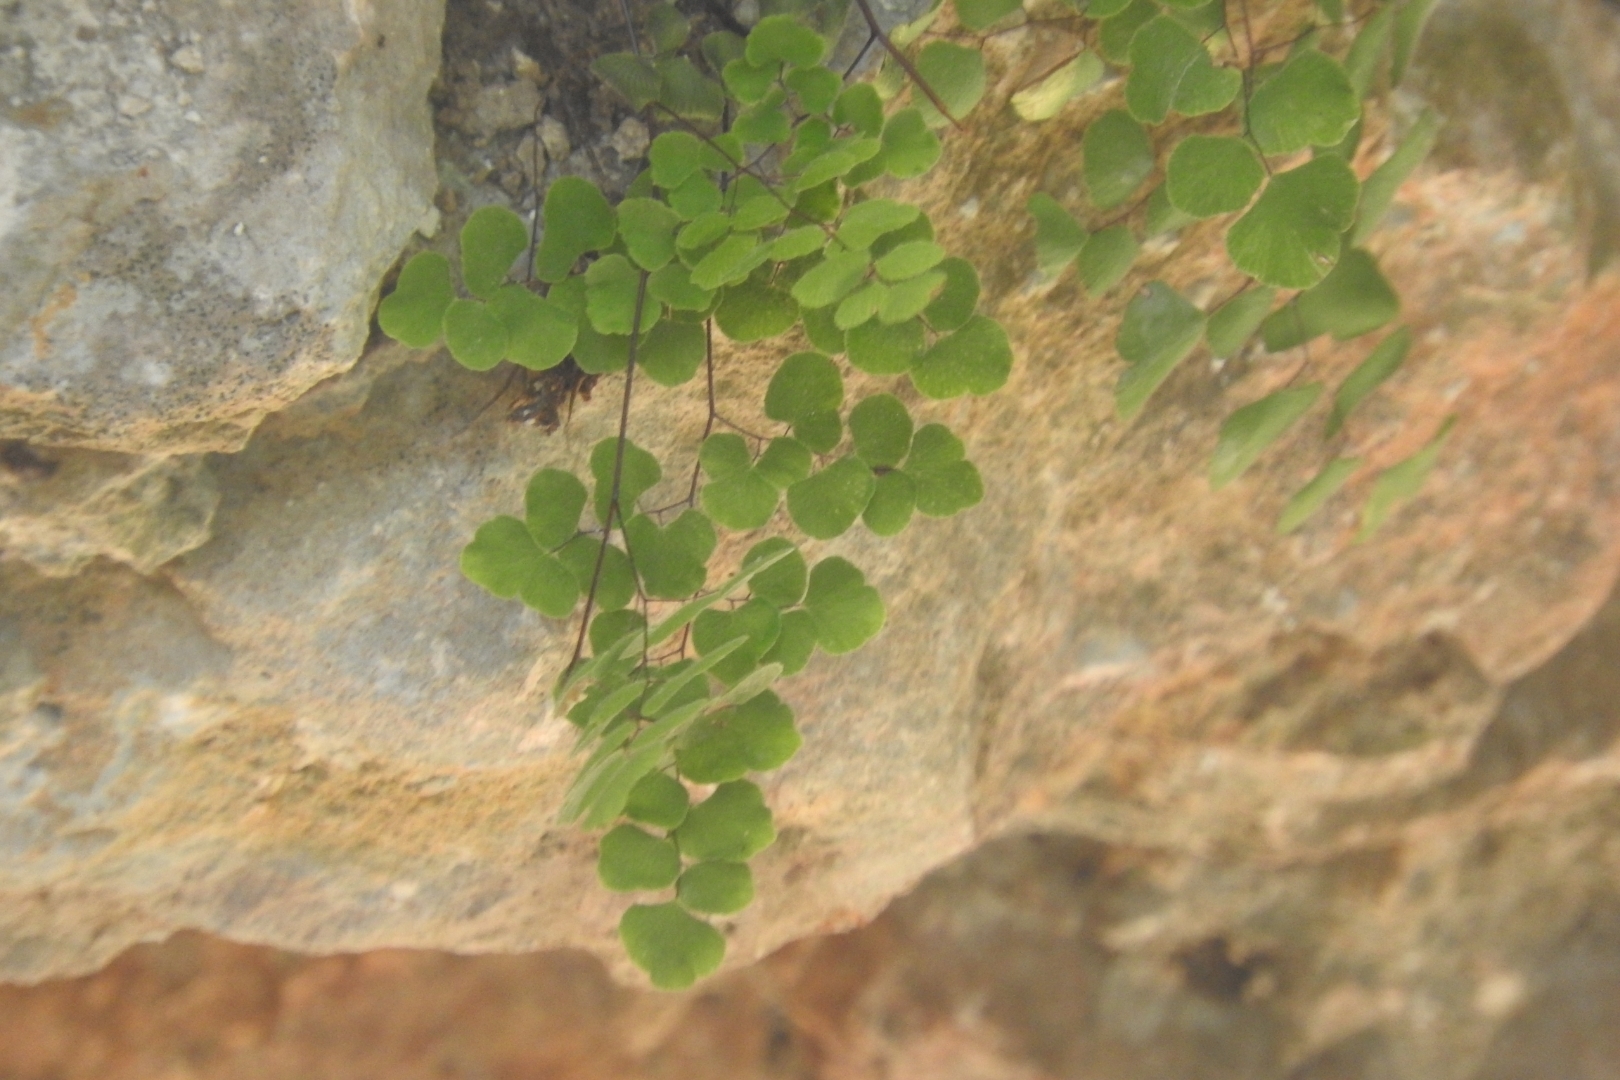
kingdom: Plantae
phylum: Tracheophyta
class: Polypodiopsida
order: Polypodiales
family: Pteridaceae
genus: Adiantum
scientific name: Adiantum tricholepis
